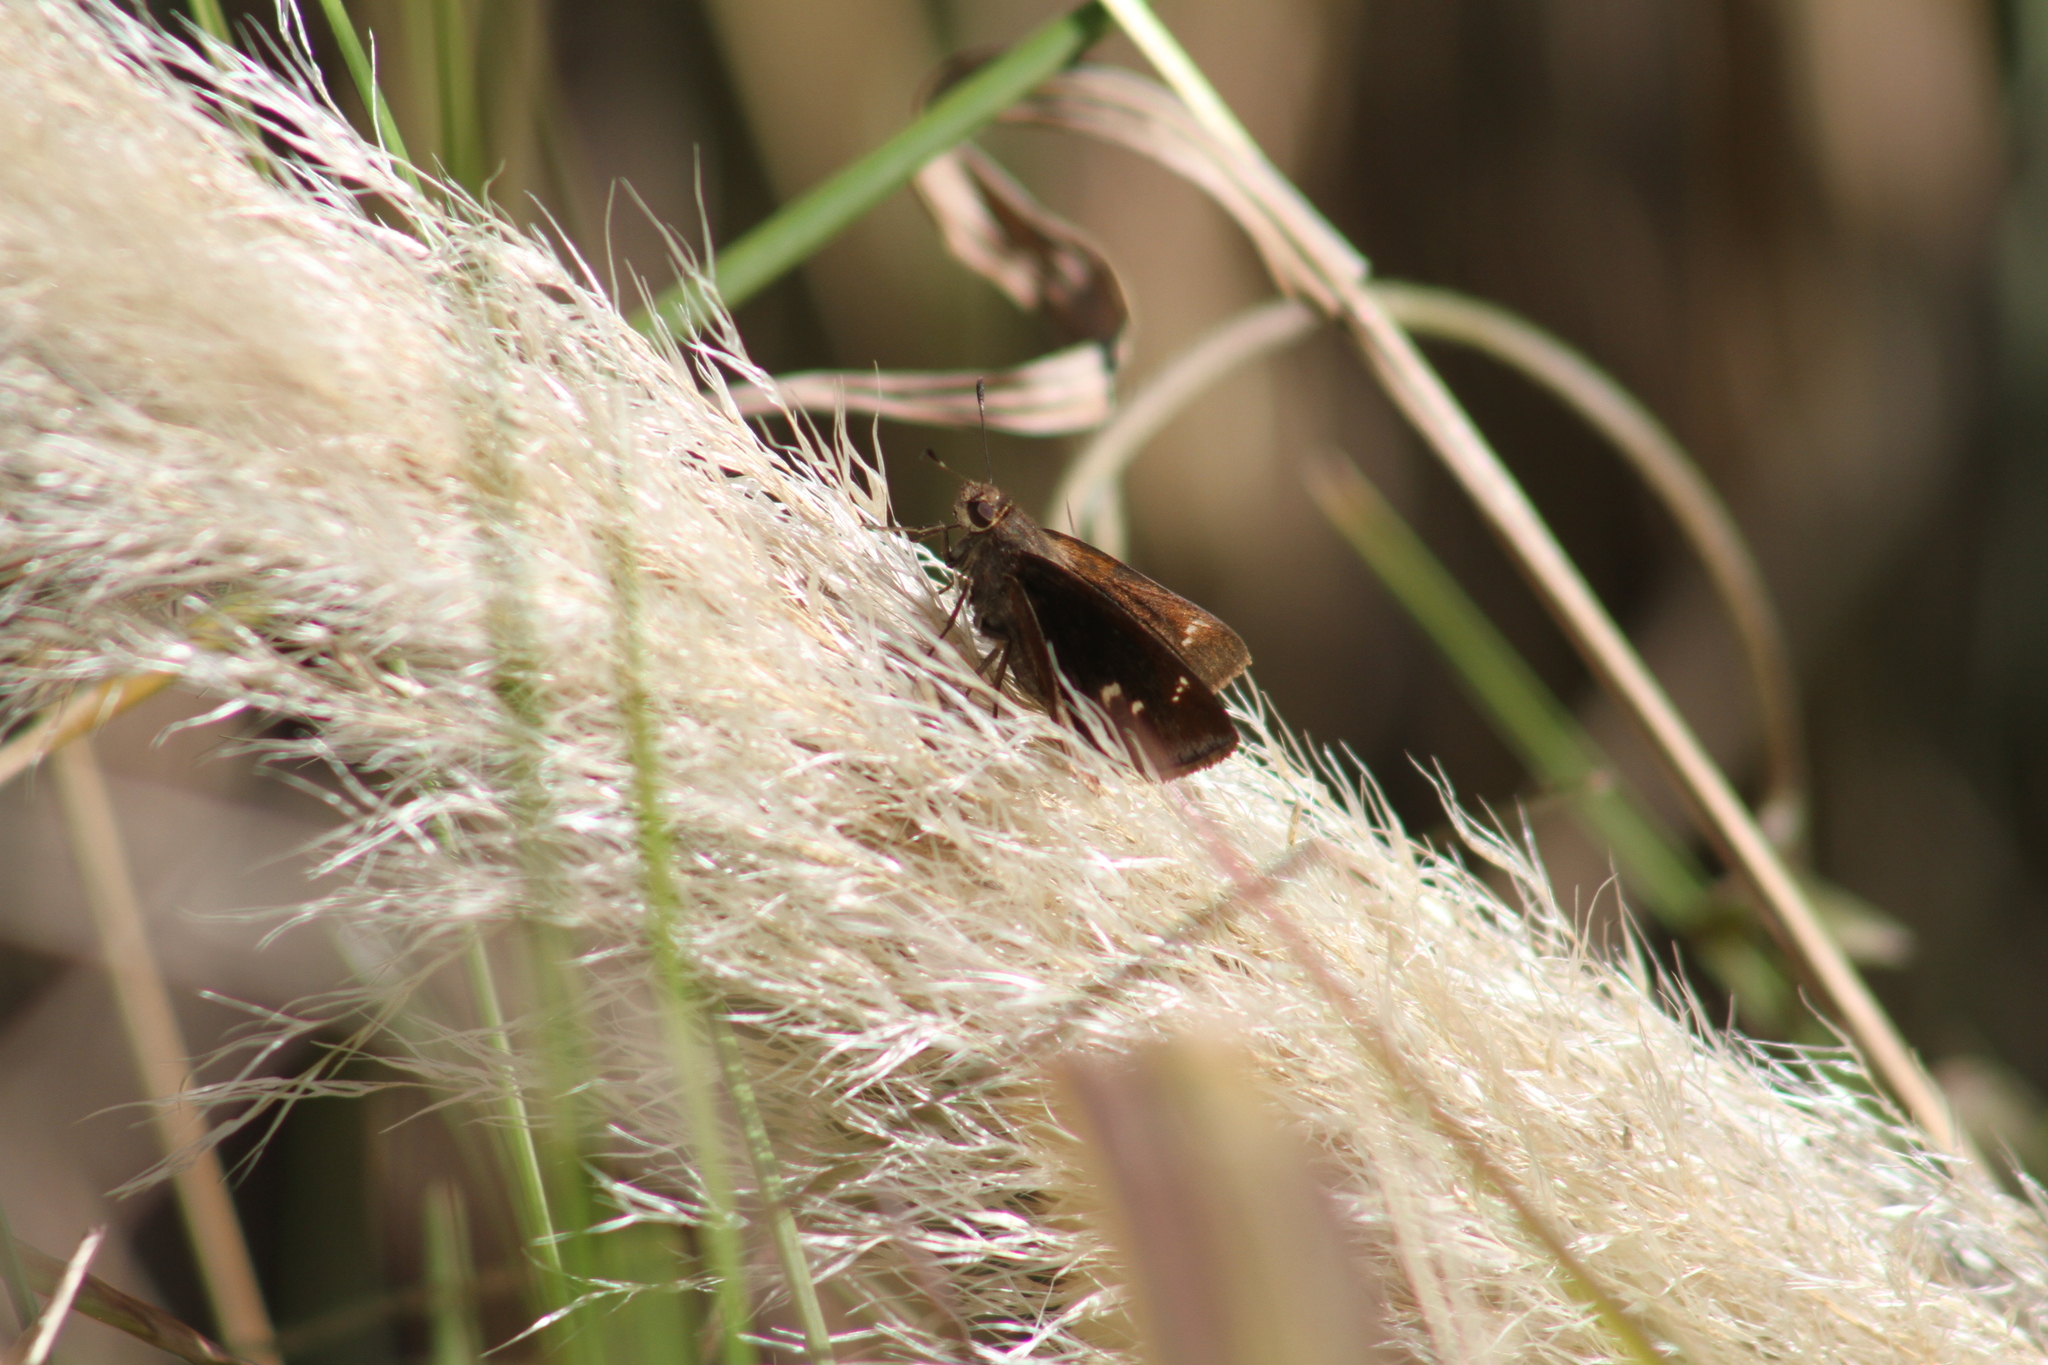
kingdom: Animalia
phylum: Arthropoda
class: Insecta
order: Lepidoptera
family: Hesperiidae
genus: Quinta
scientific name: Quinta cannae
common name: Canna skipper
